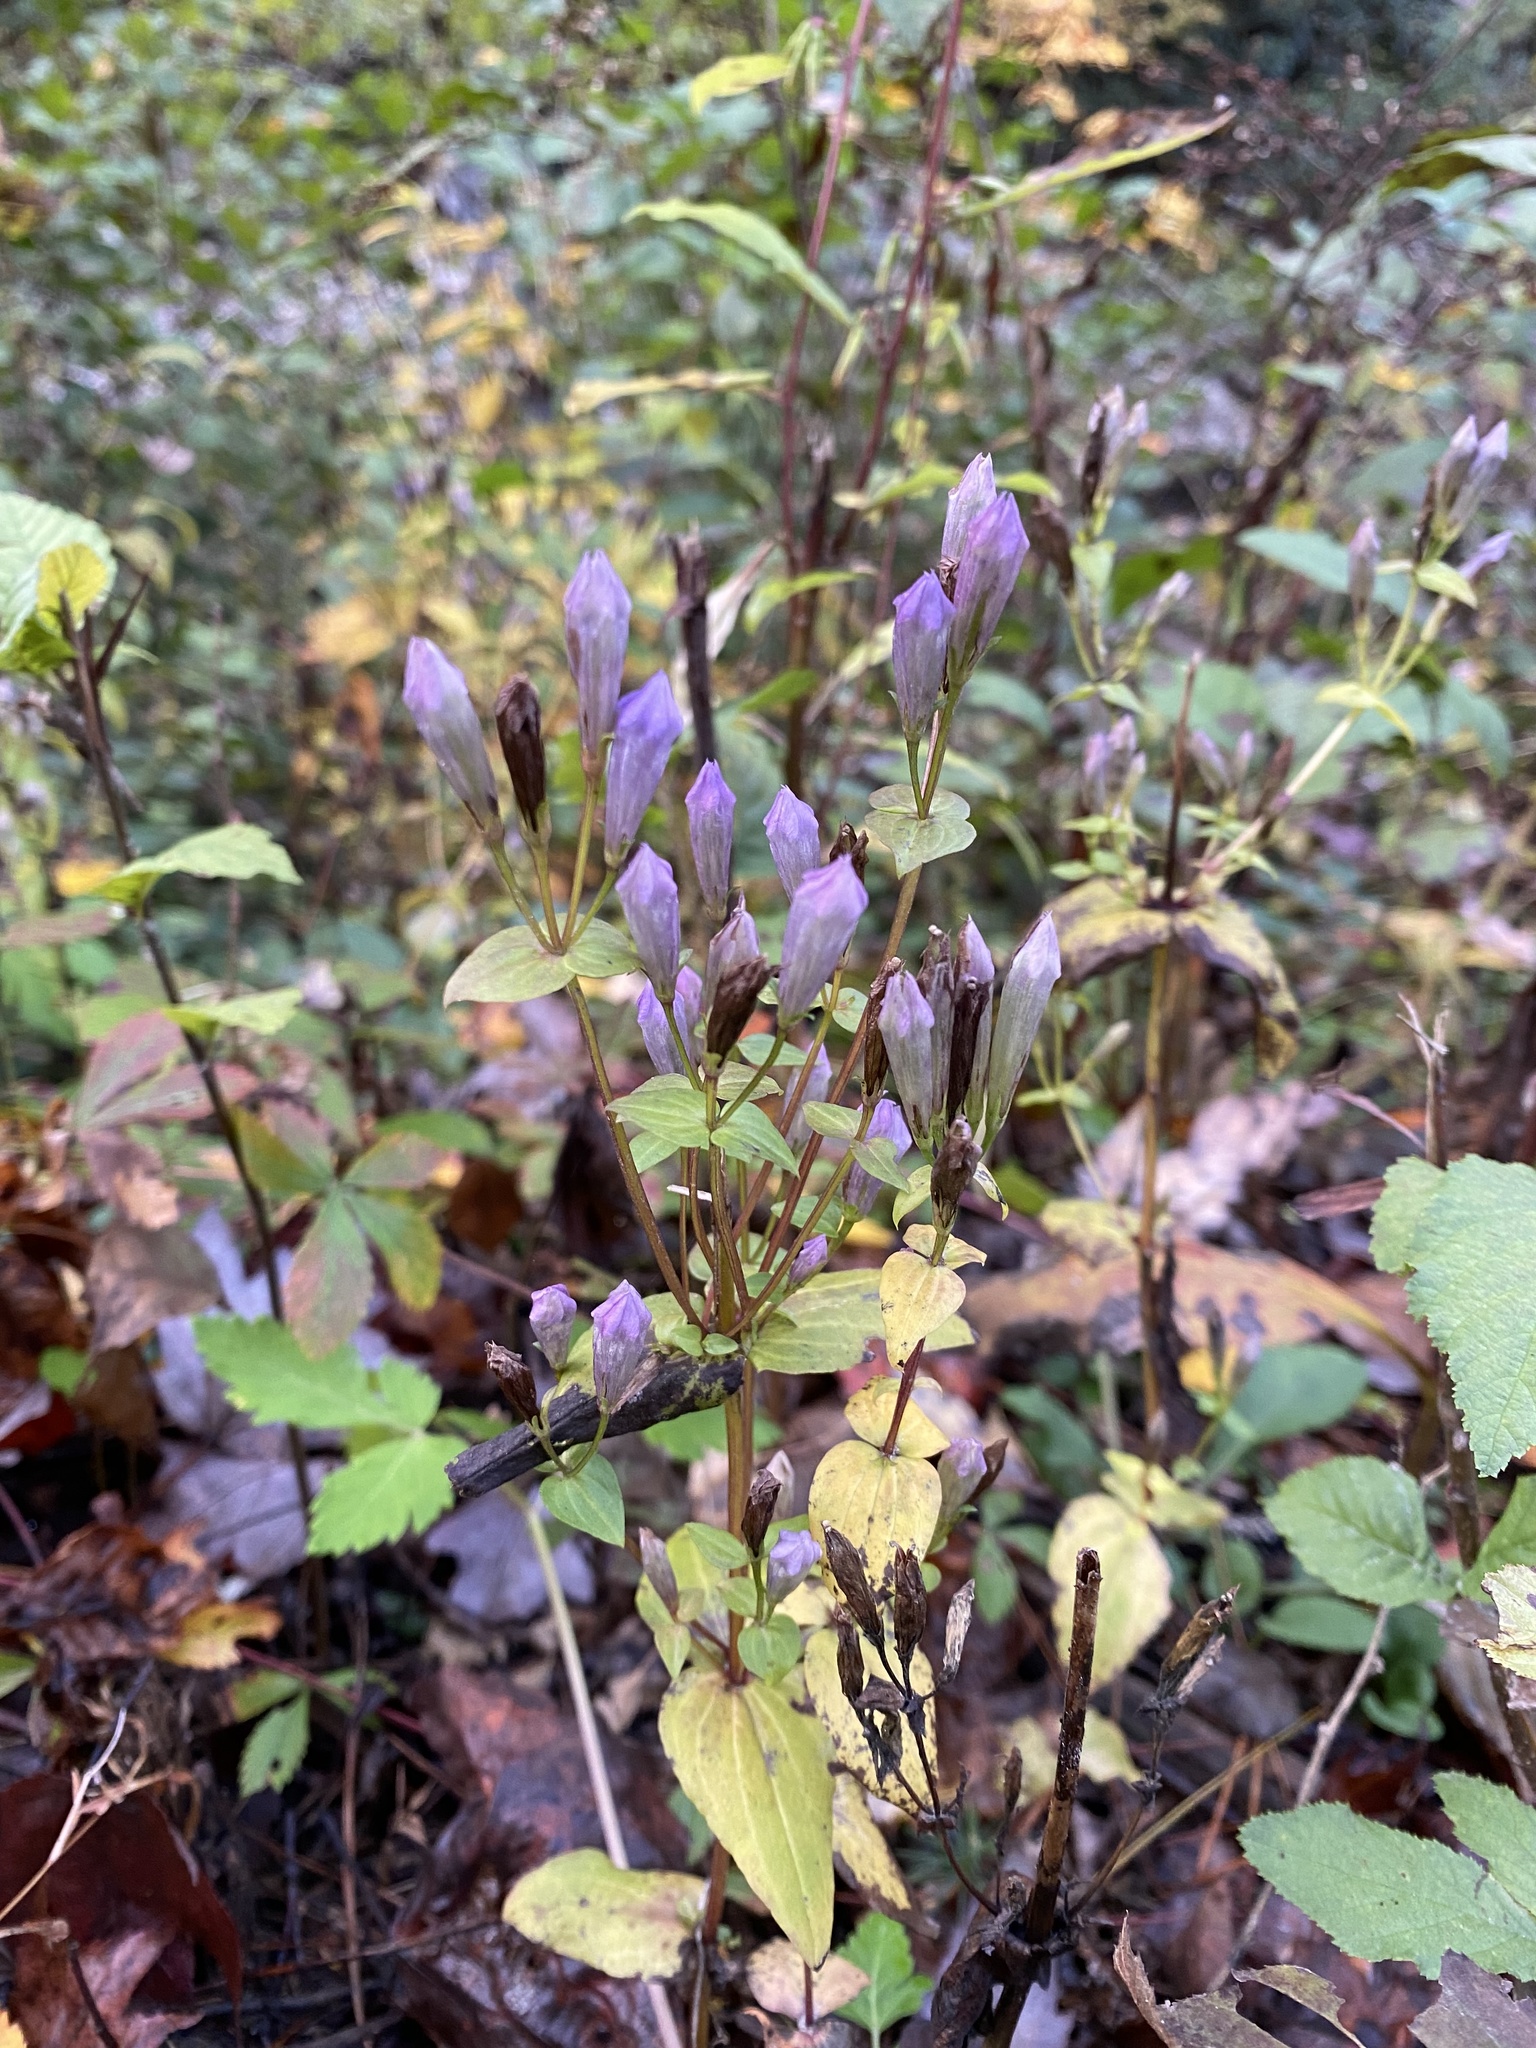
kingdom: Plantae
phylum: Tracheophyta
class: Magnoliopsida
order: Gentianales
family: Gentianaceae
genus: Gentianella
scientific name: Gentianella quinquefolia
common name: Agueweed
